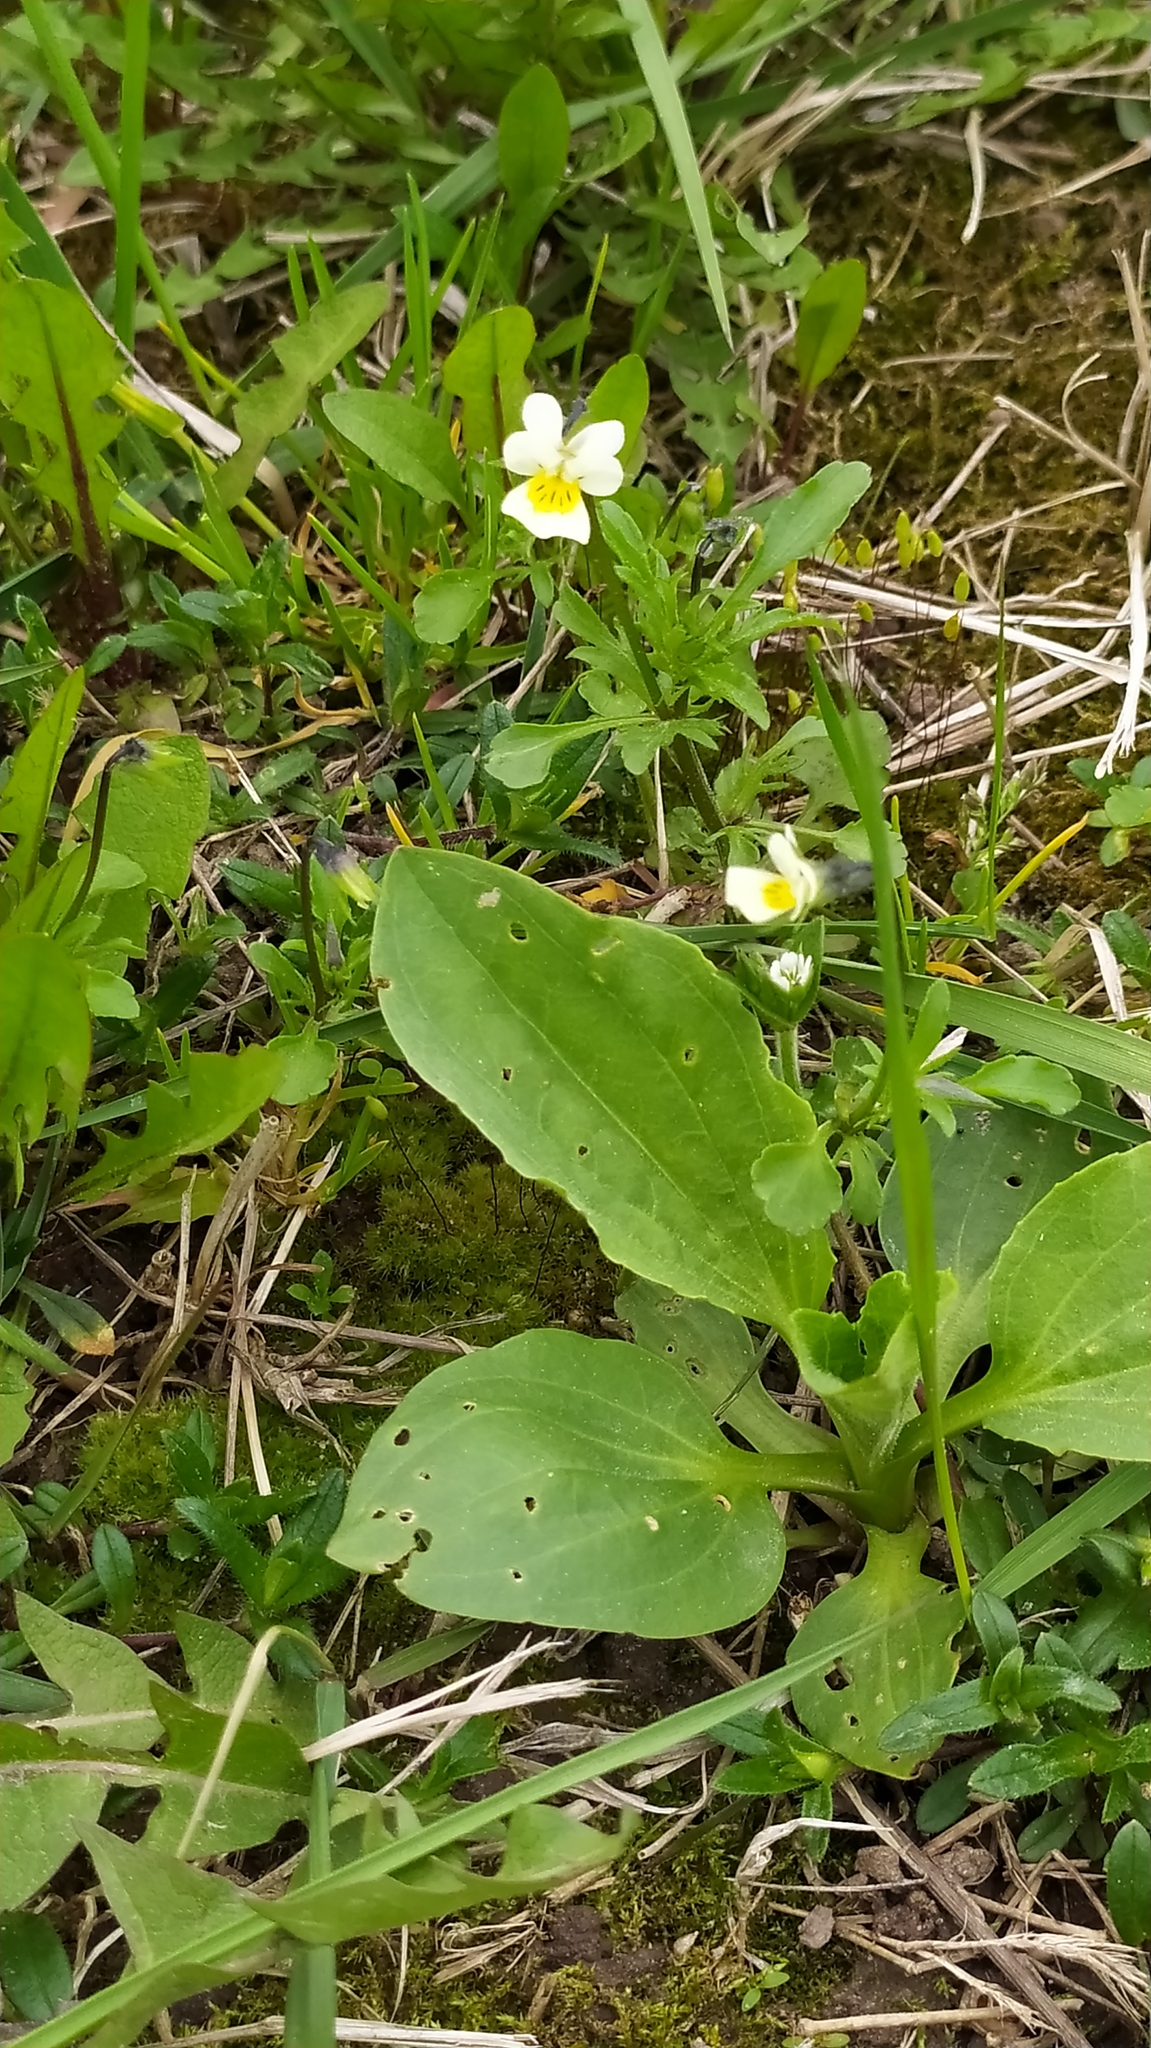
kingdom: Plantae
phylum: Tracheophyta
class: Magnoliopsida
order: Malpighiales
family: Violaceae
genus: Viola
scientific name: Viola arvensis
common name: Field pansy
